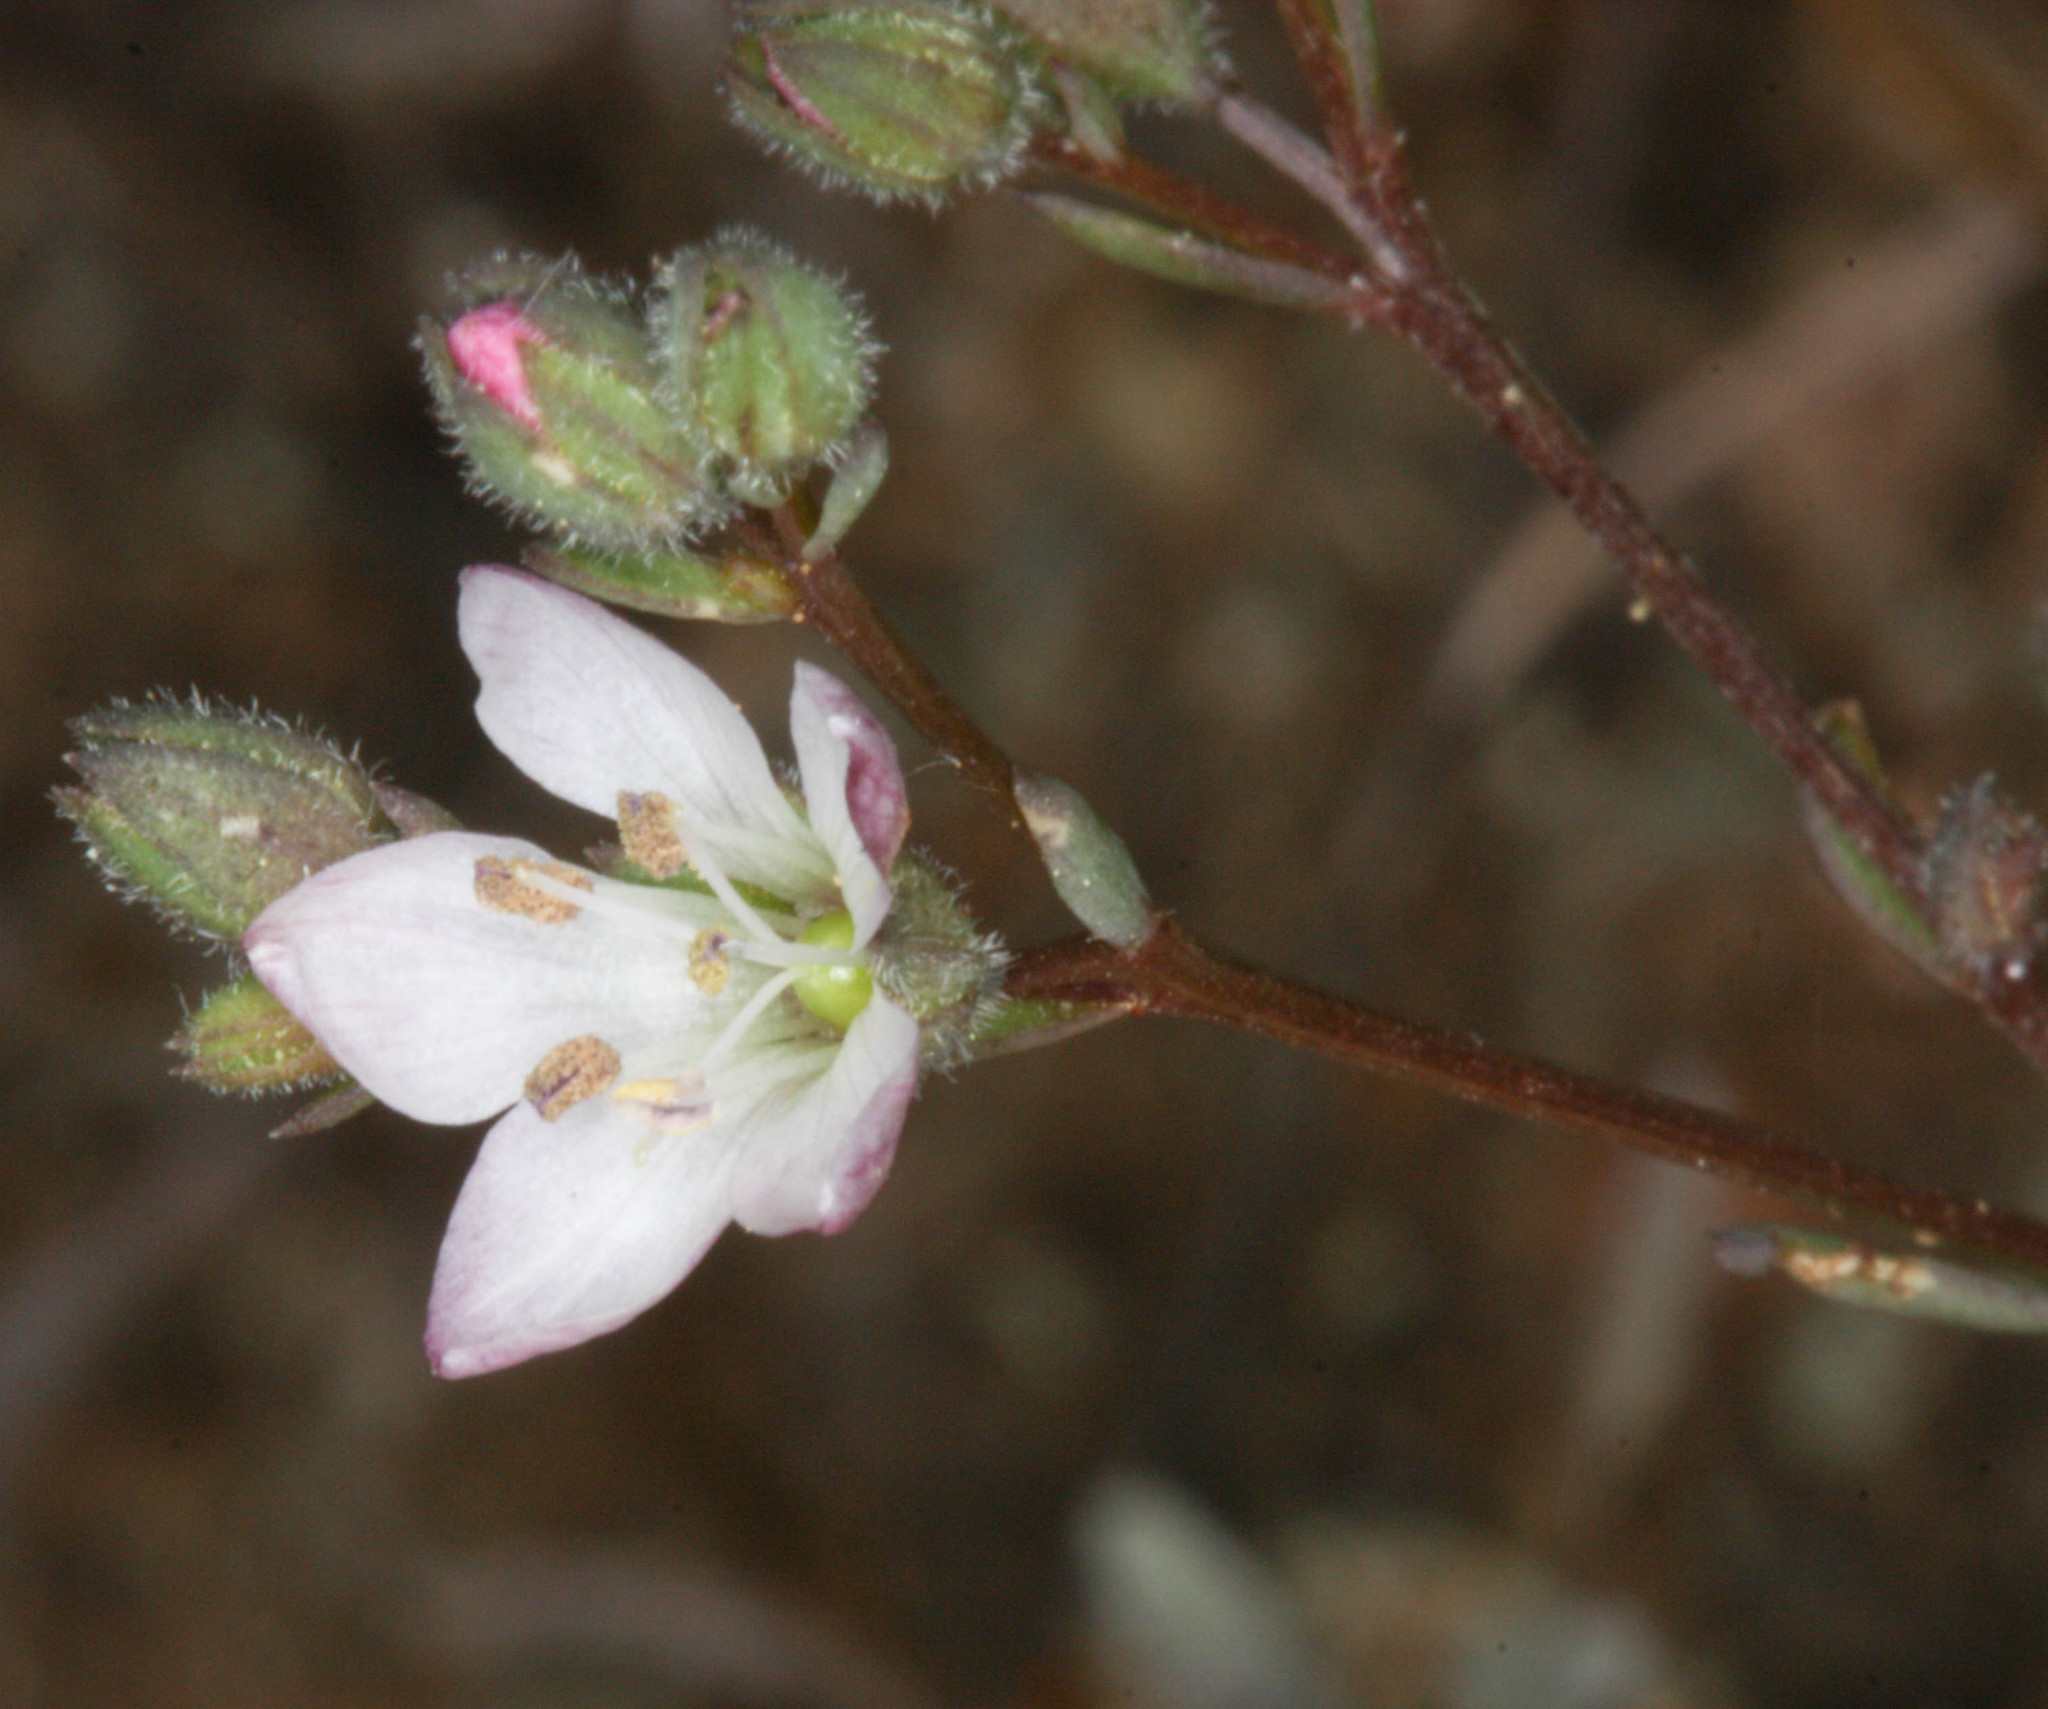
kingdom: Plantae
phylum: Tracheophyta
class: Magnoliopsida
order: Malpighiales
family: Linaceae
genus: Hesperolinon
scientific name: Hesperolinon congestum
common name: Marin dwarf-flax
